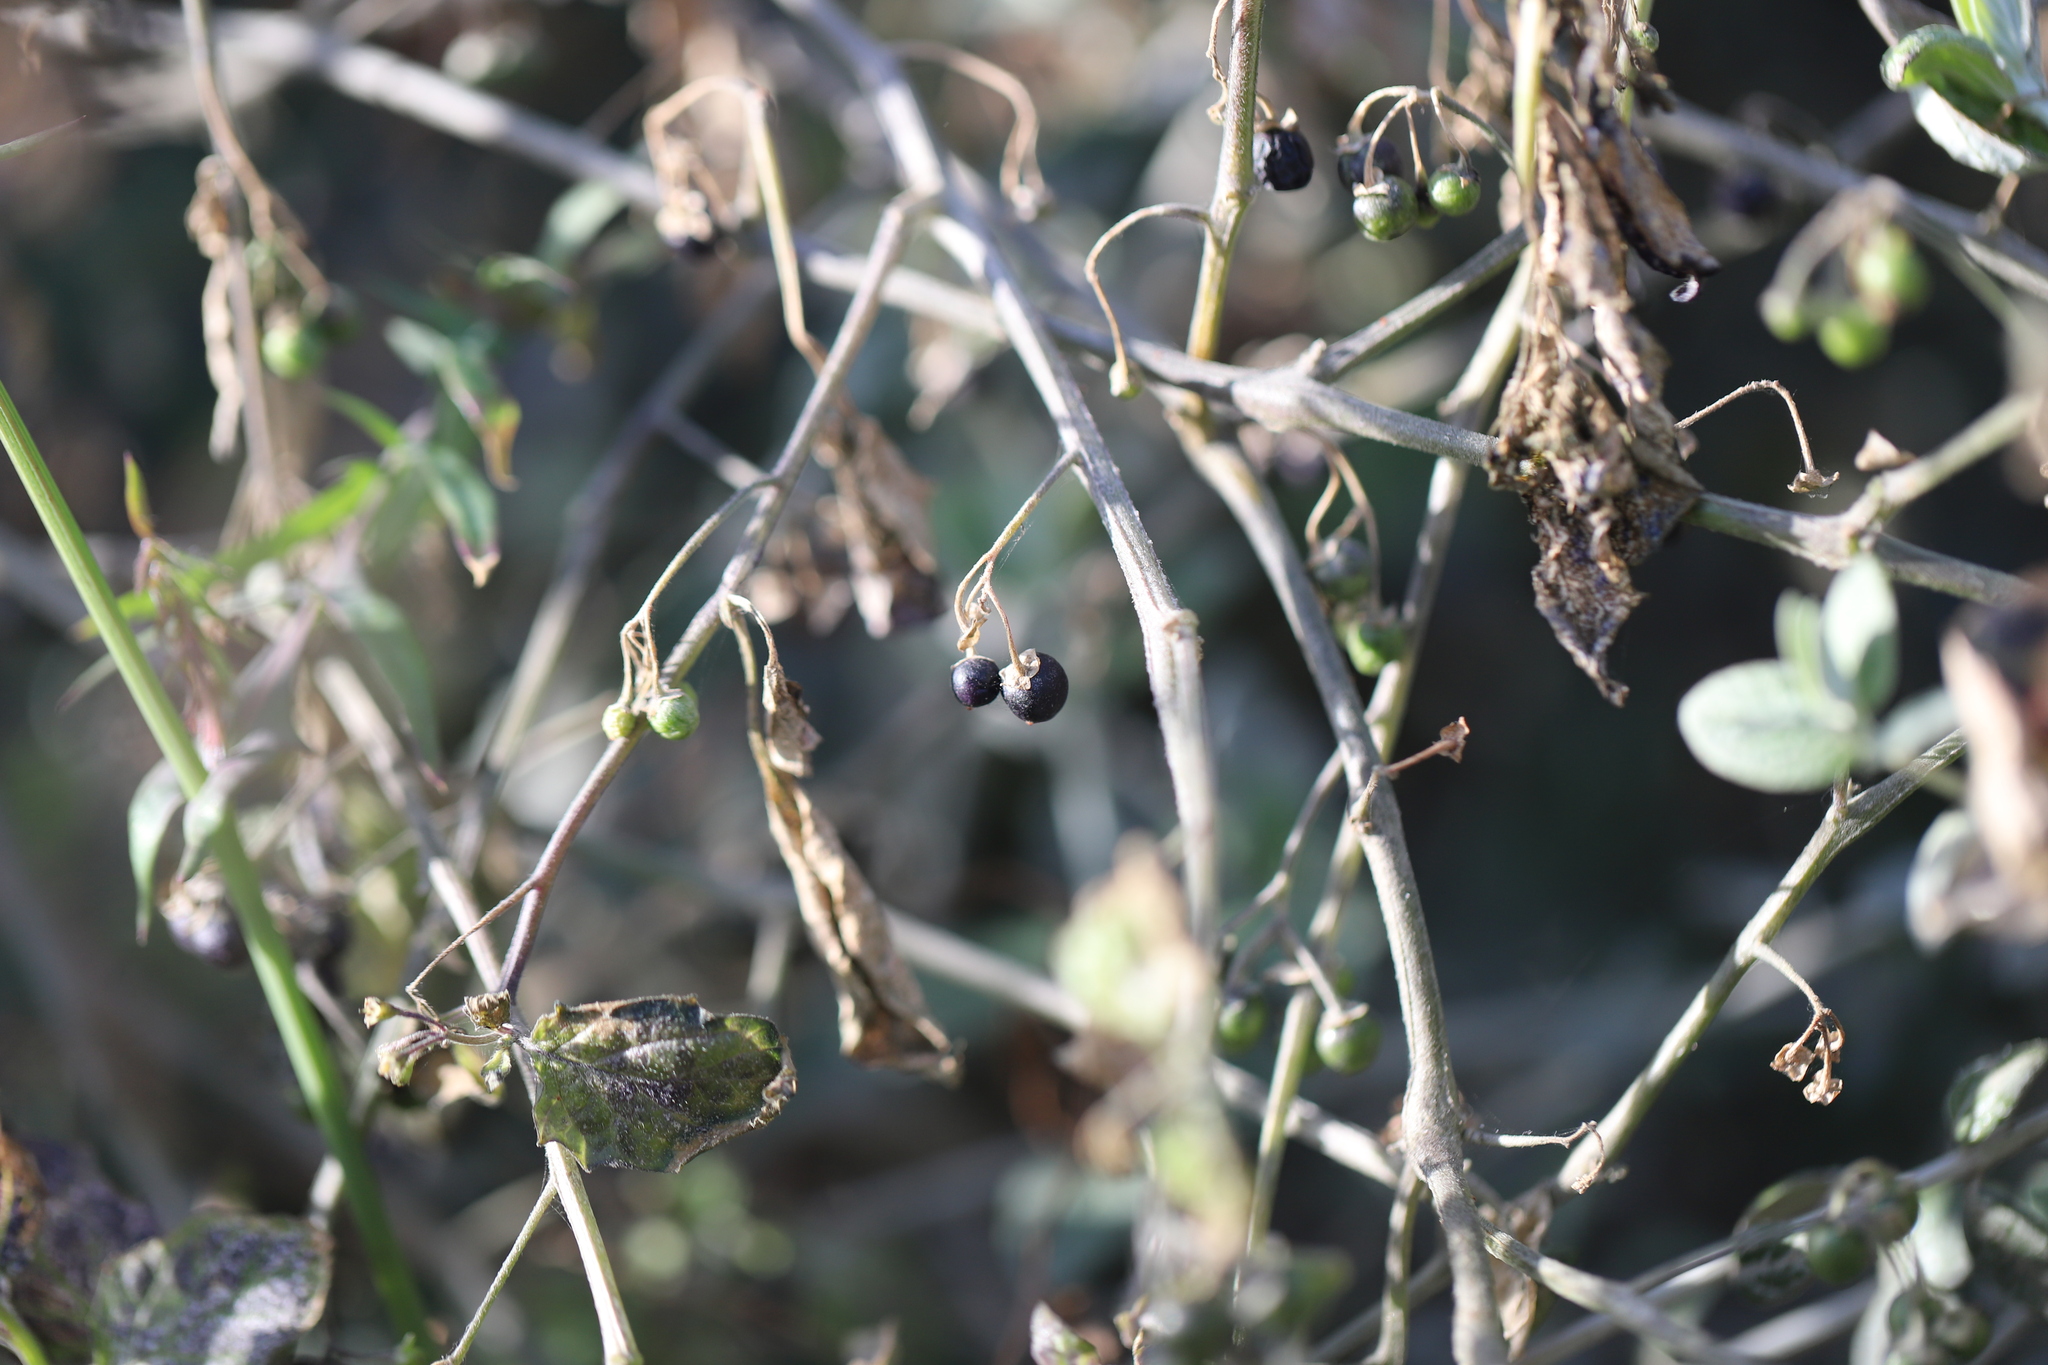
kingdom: Plantae
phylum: Tracheophyta
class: Magnoliopsida
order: Solanales
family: Solanaceae
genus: Solanum
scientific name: Solanum nigrum
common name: Black nightshade
